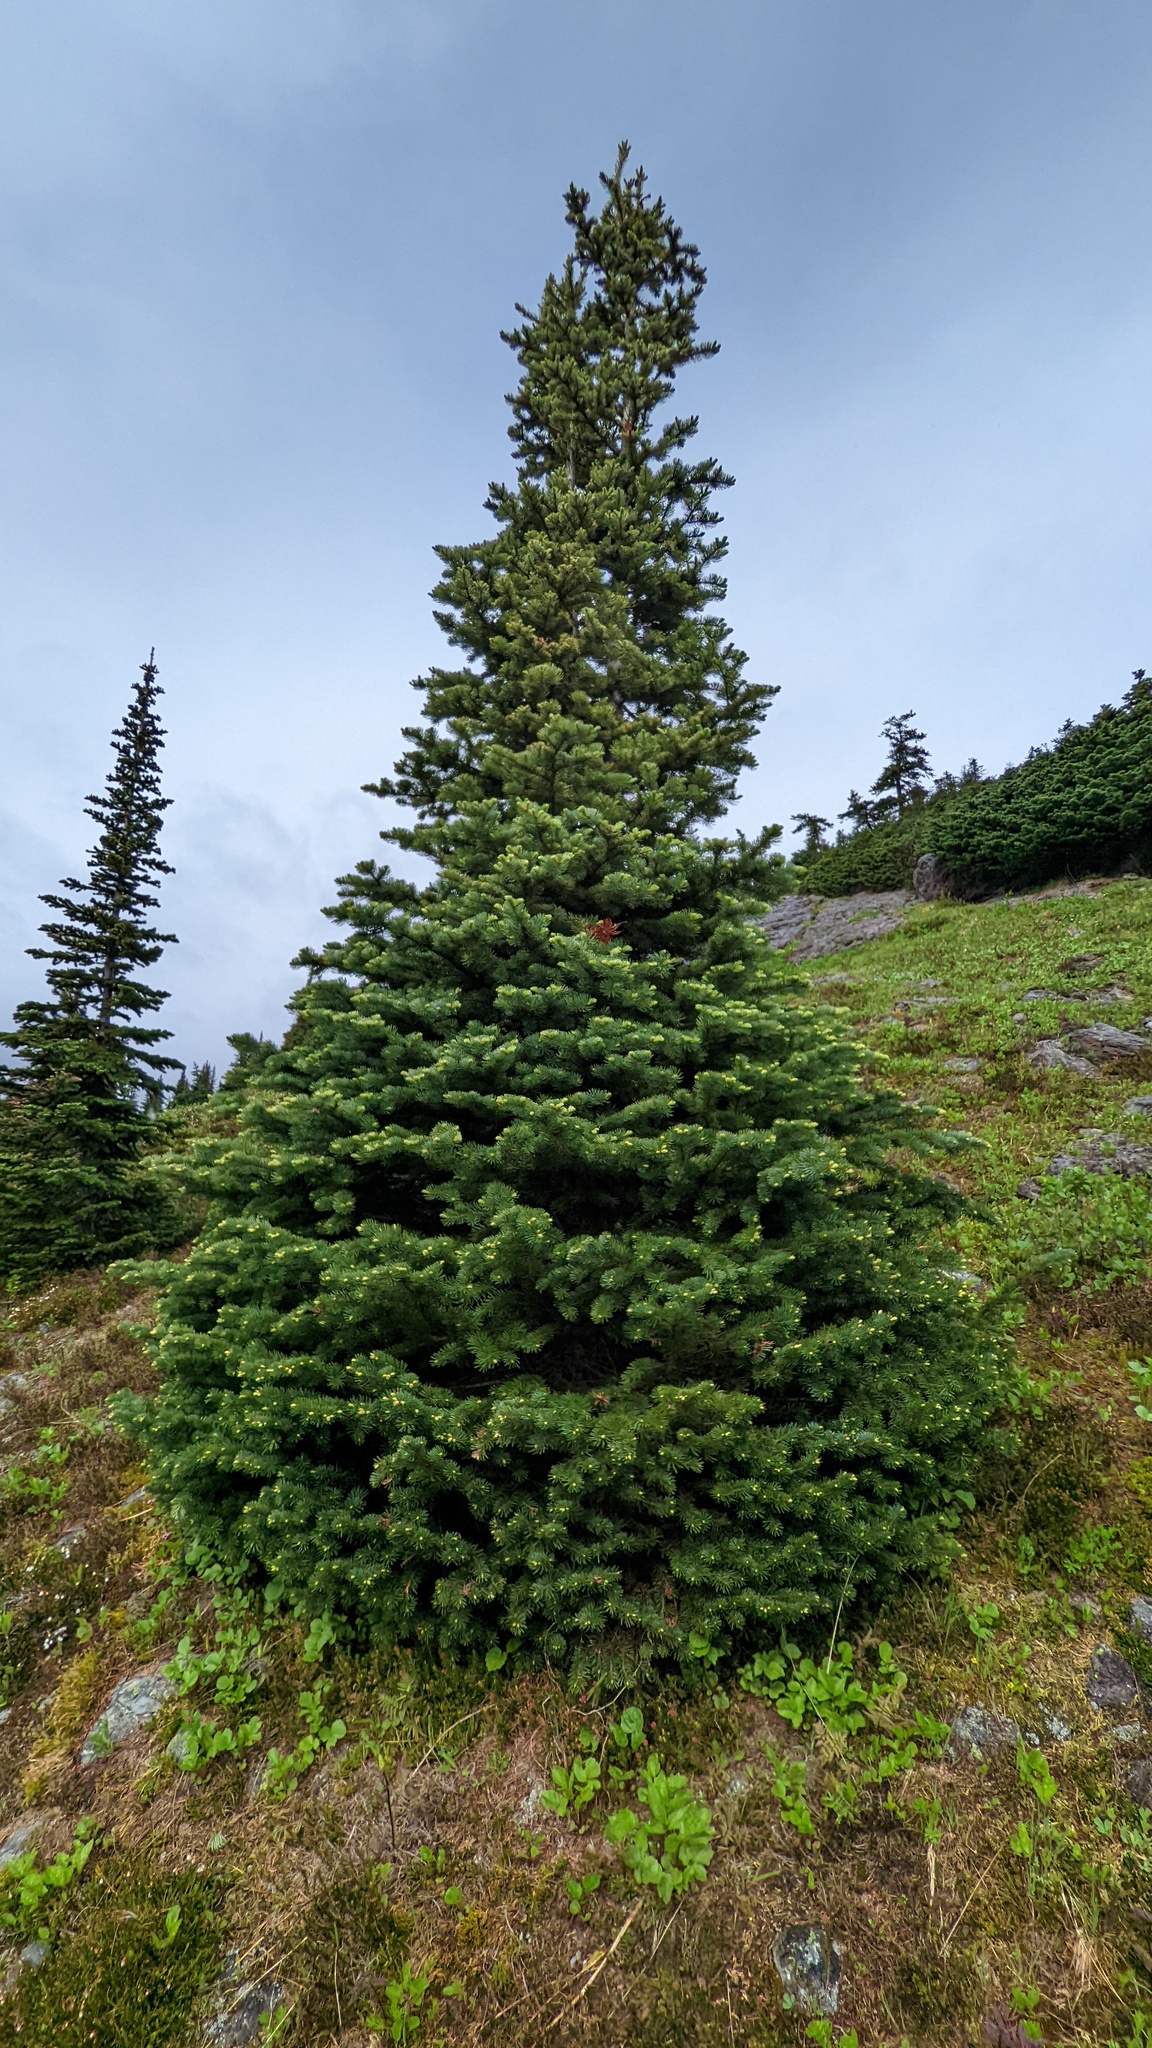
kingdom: Plantae
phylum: Tracheophyta
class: Pinopsida
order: Pinales
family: Pinaceae
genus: Abies
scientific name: Abies lasiocarpa
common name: Subalpine fir
